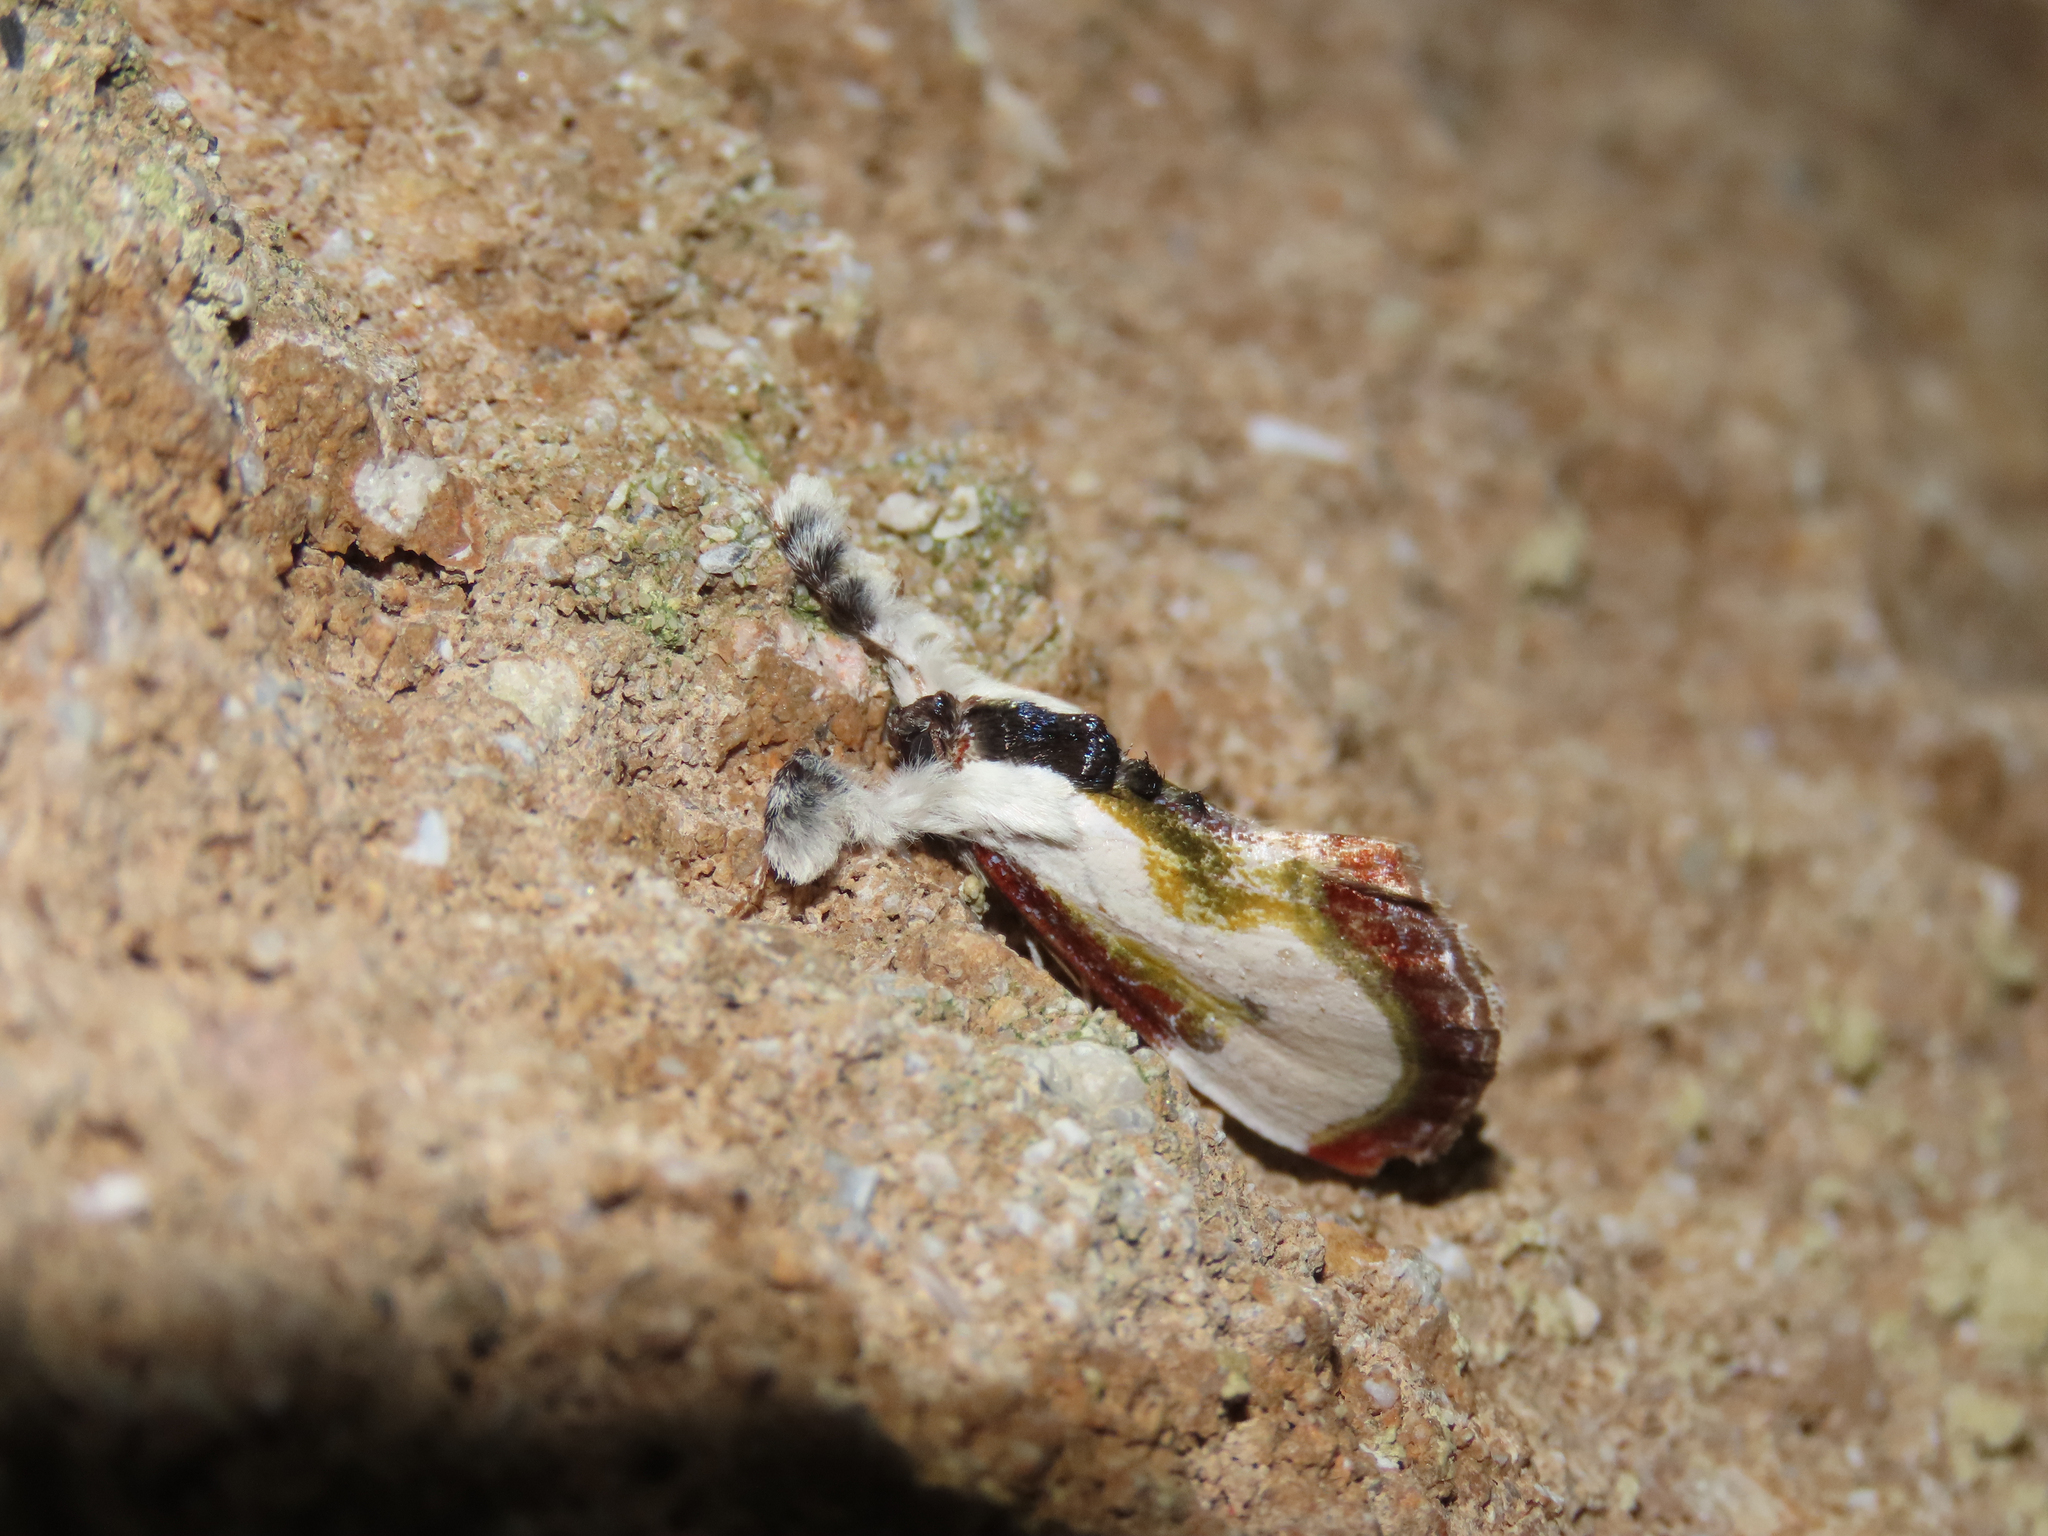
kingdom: Animalia
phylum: Arthropoda
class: Insecta
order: Lepidoptera
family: Noctuidae
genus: Eudryas
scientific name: Eudryas grata
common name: Beautiful wood-nymph
